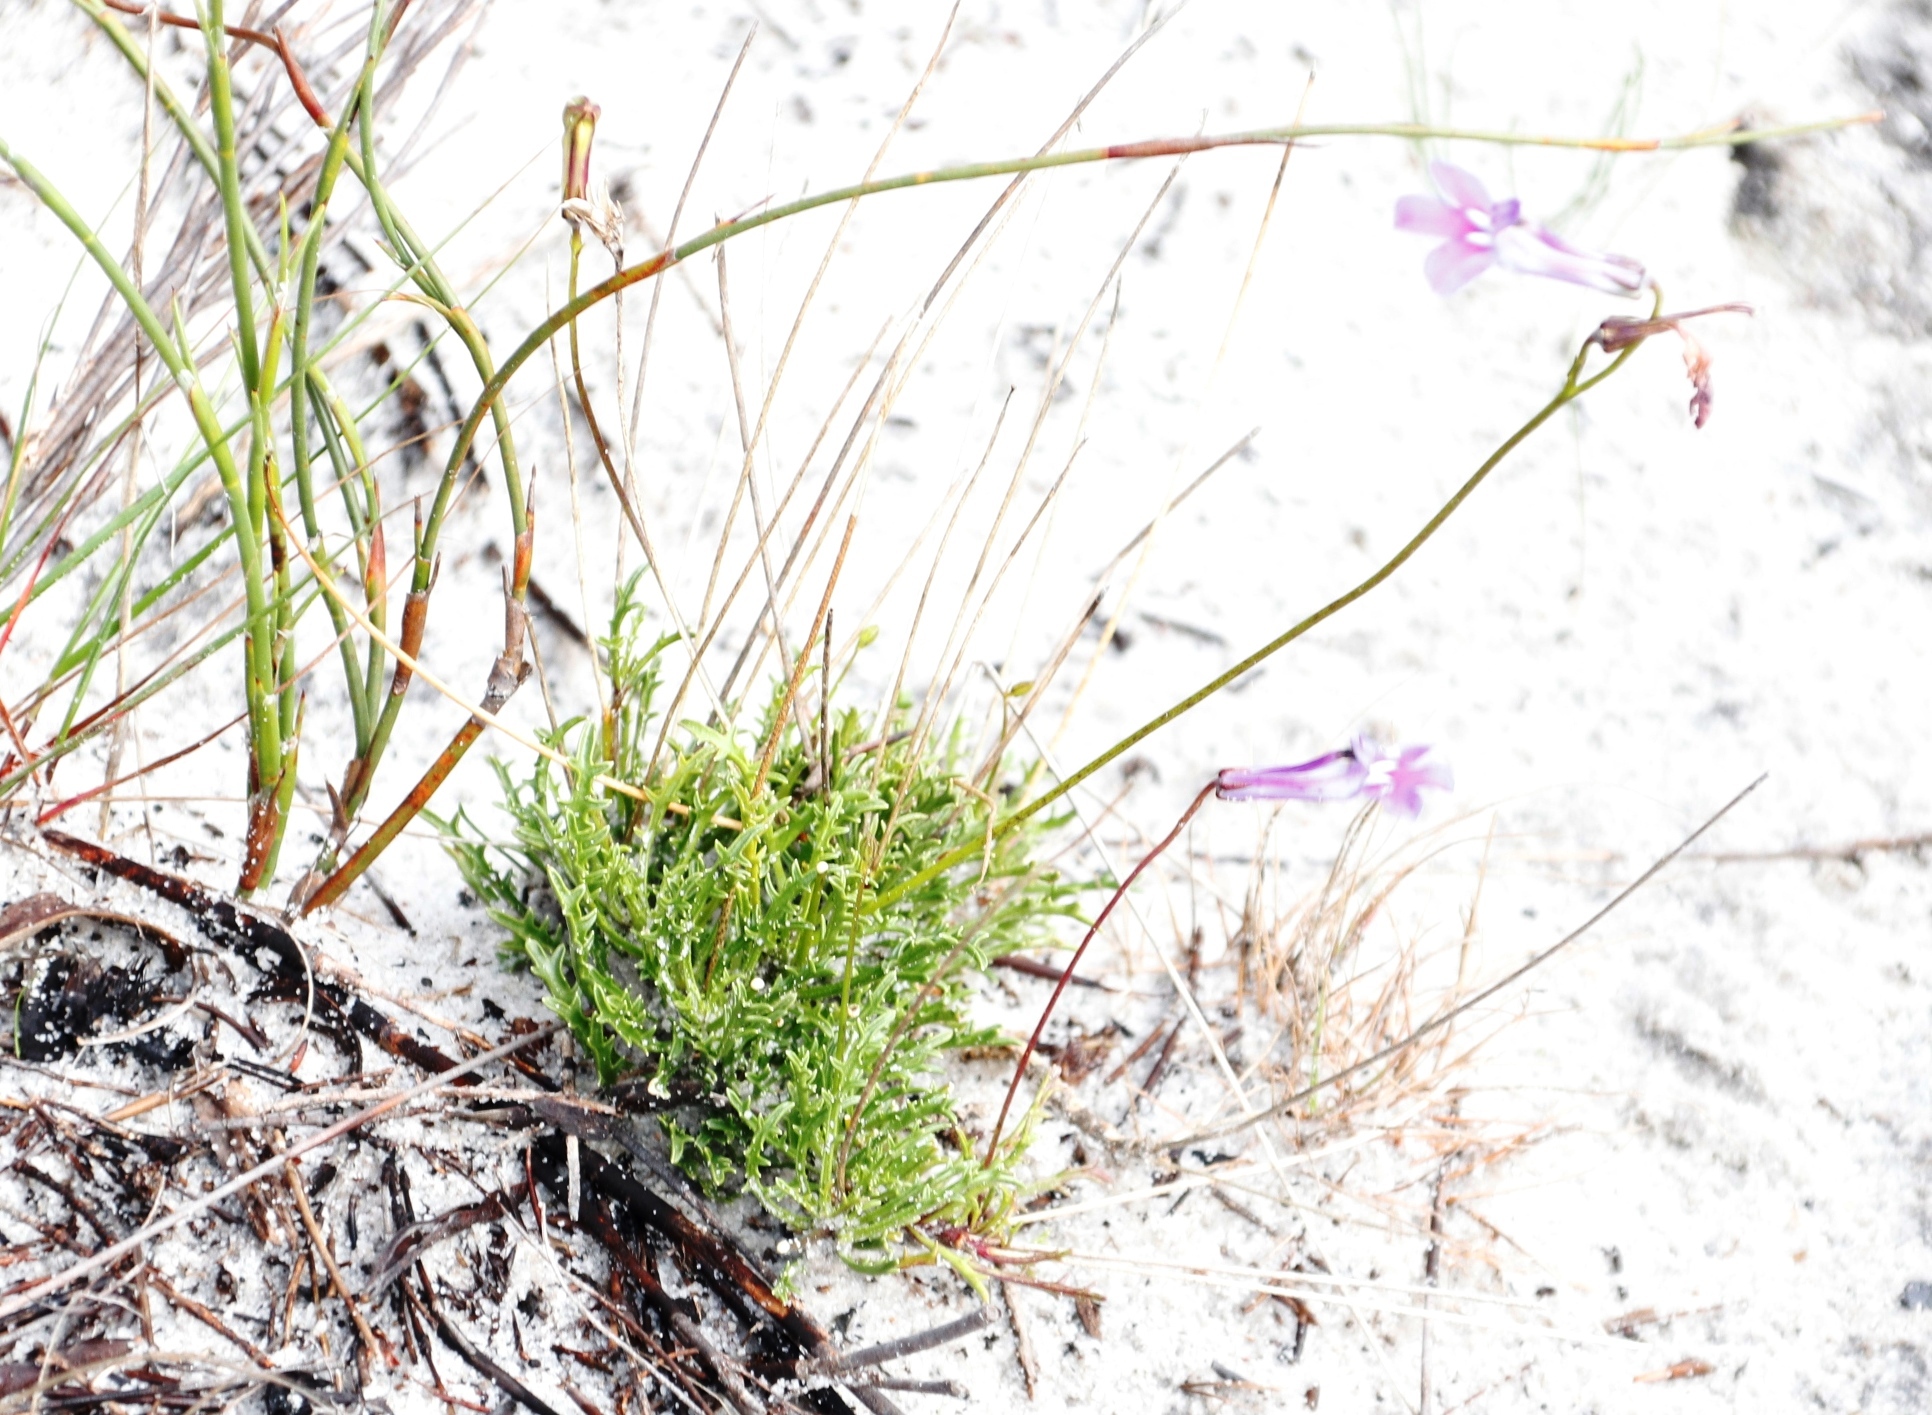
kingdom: Plantae
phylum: Tracheophyta
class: Magnoliopsida
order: Asterales
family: Campanulaceae
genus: Lobelia
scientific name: Lobelia coronopifolia
